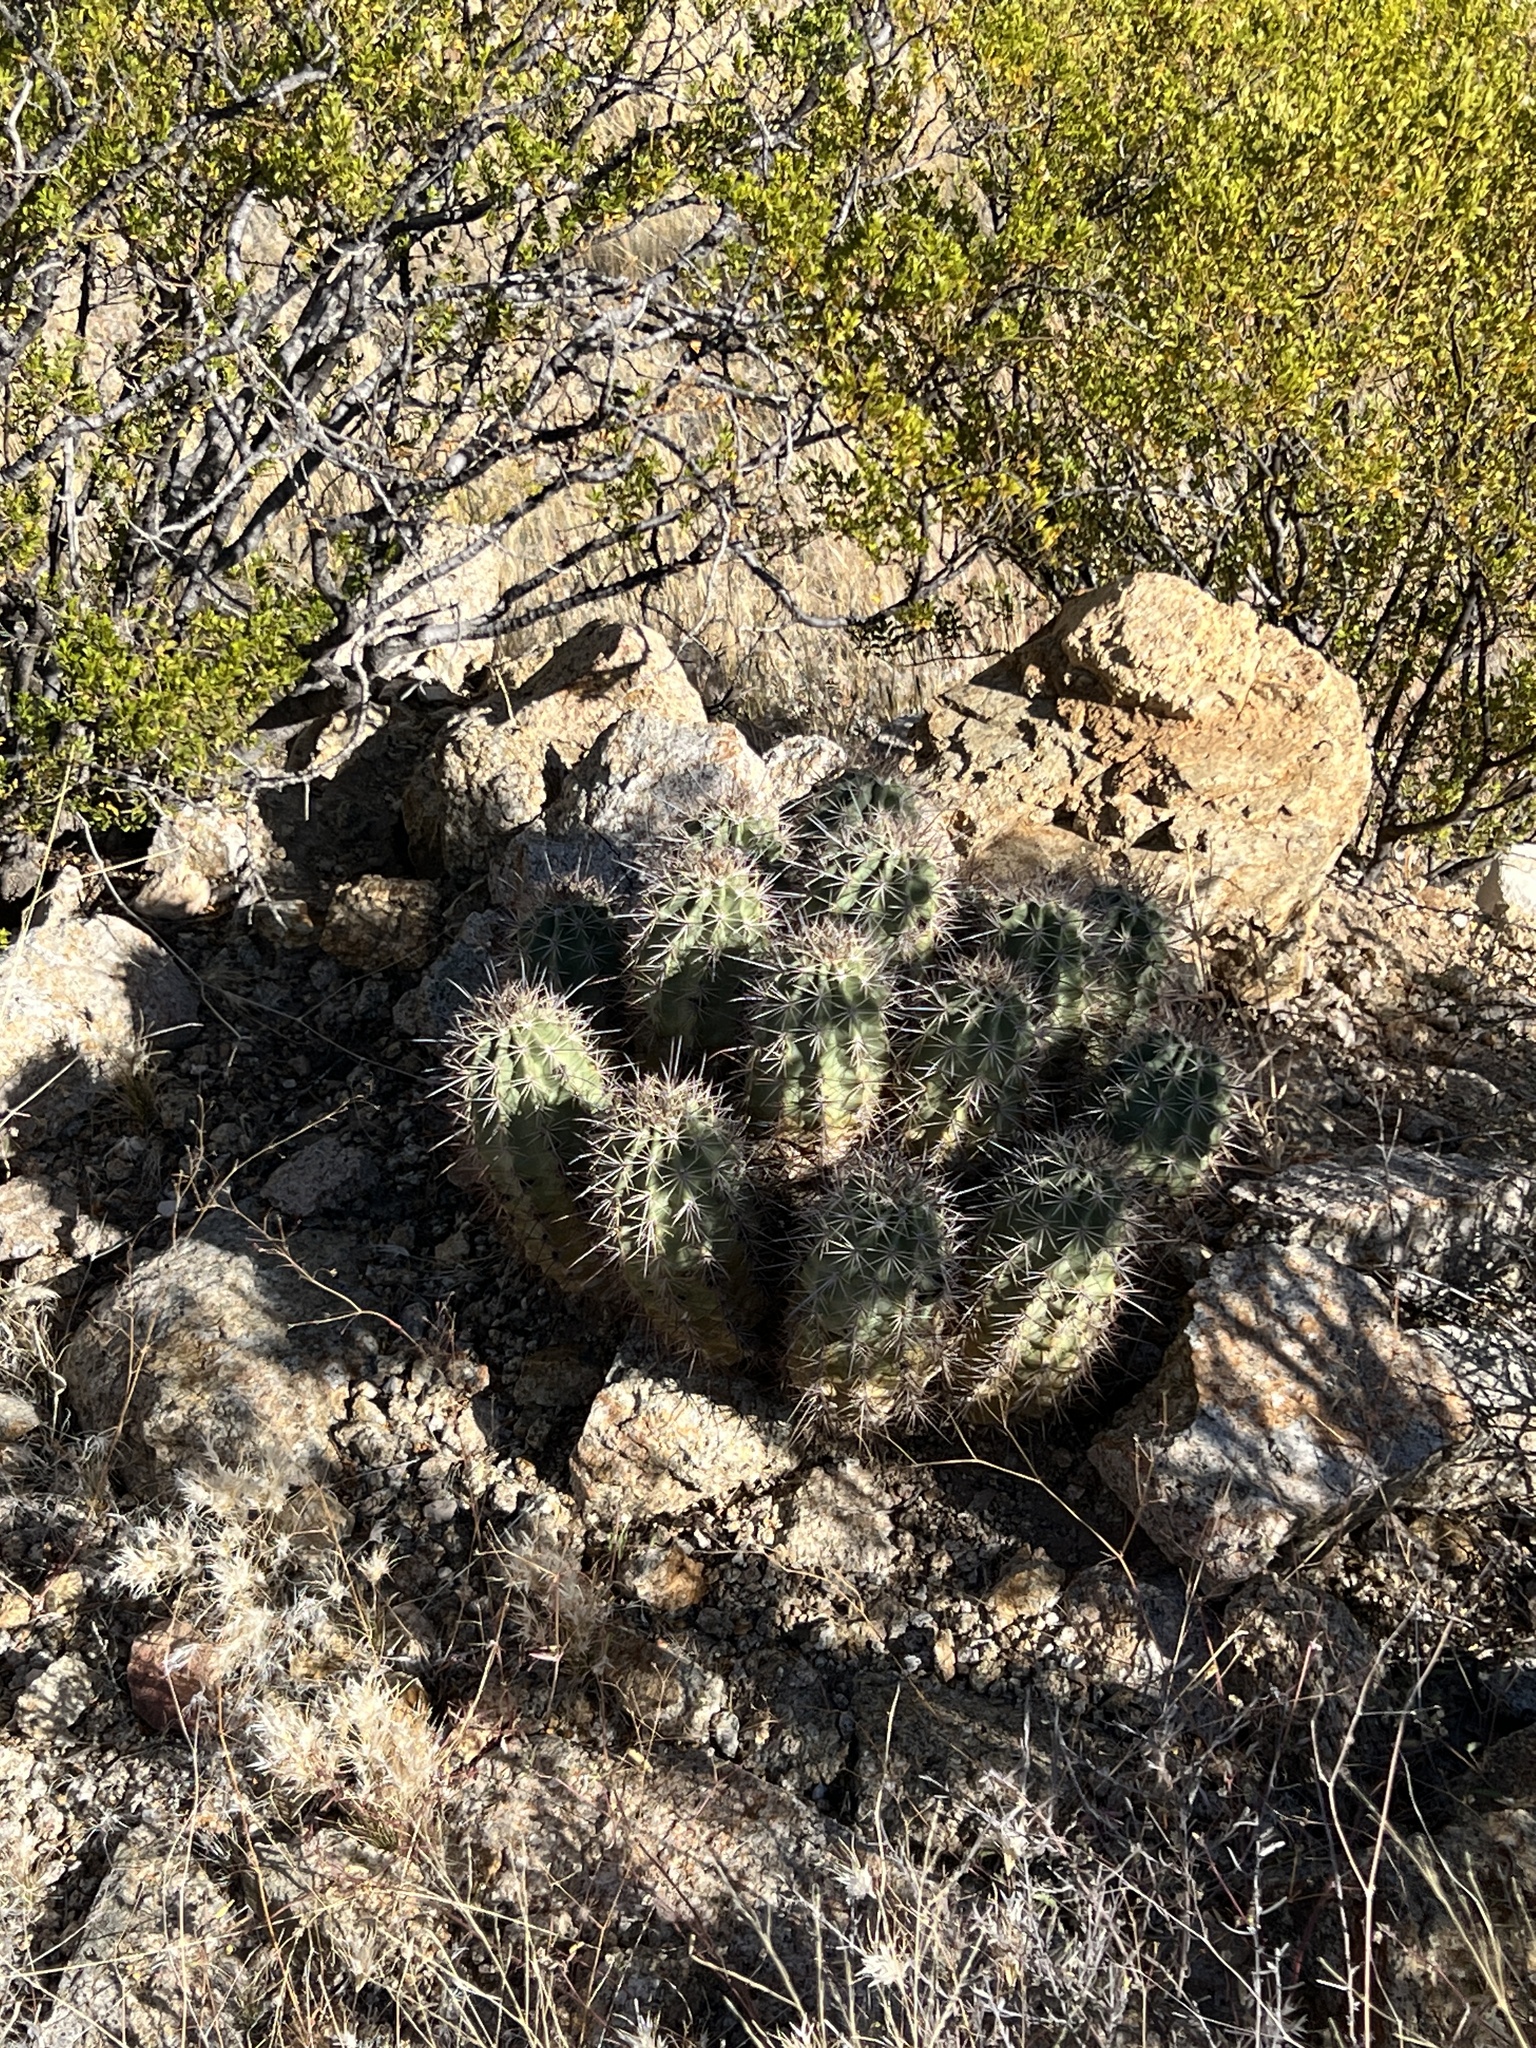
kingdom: Plantae
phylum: Tracheophyta
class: Magnoliopsida
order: Caryophyllales
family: Cactaceae
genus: Echinocereus
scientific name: Echinocereus coccineus
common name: Scarlet hedgehog cactus
